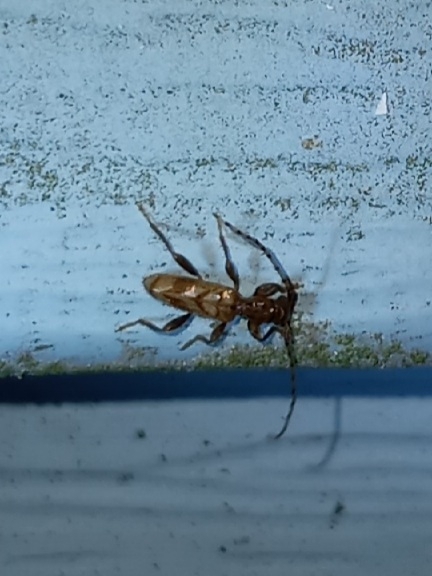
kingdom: Animalia
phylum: Arthropoda
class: Insecta
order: Coleoptera
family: Cerambycidae
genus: Obrium
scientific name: Obrium maculatum
